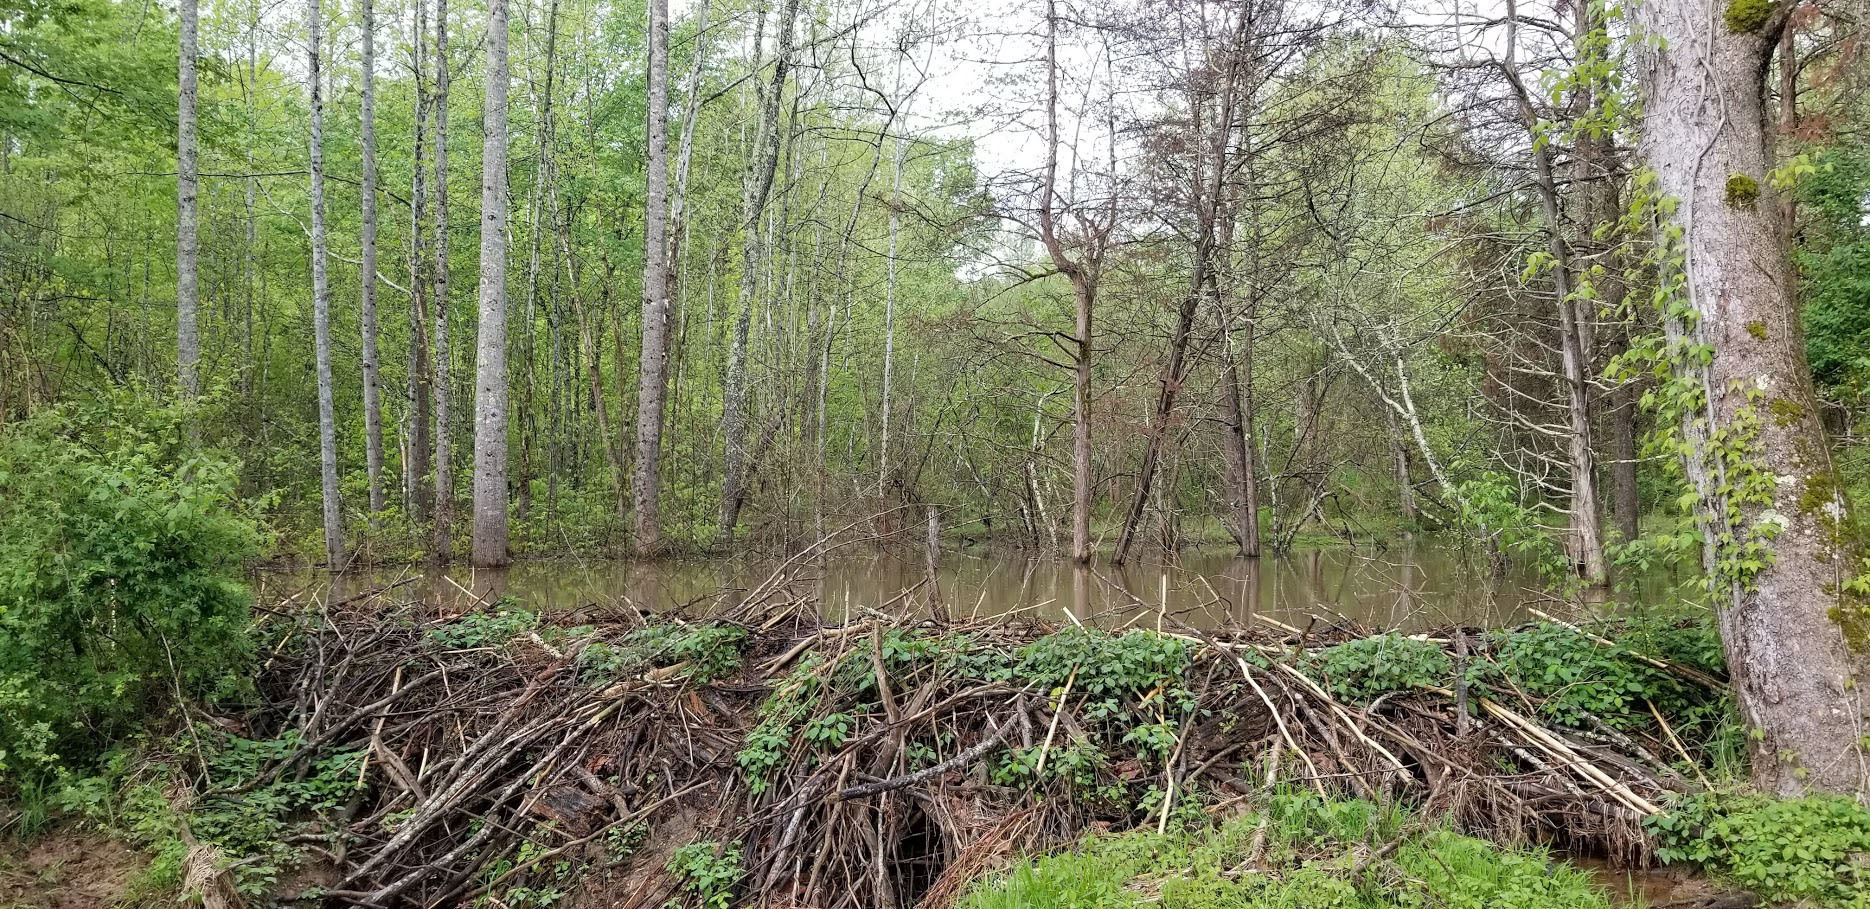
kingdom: Animalia
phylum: Chordata
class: Mammalia
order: Rodentia
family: Castoridae
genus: Castor
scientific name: Castor canadensis
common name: American beaver
